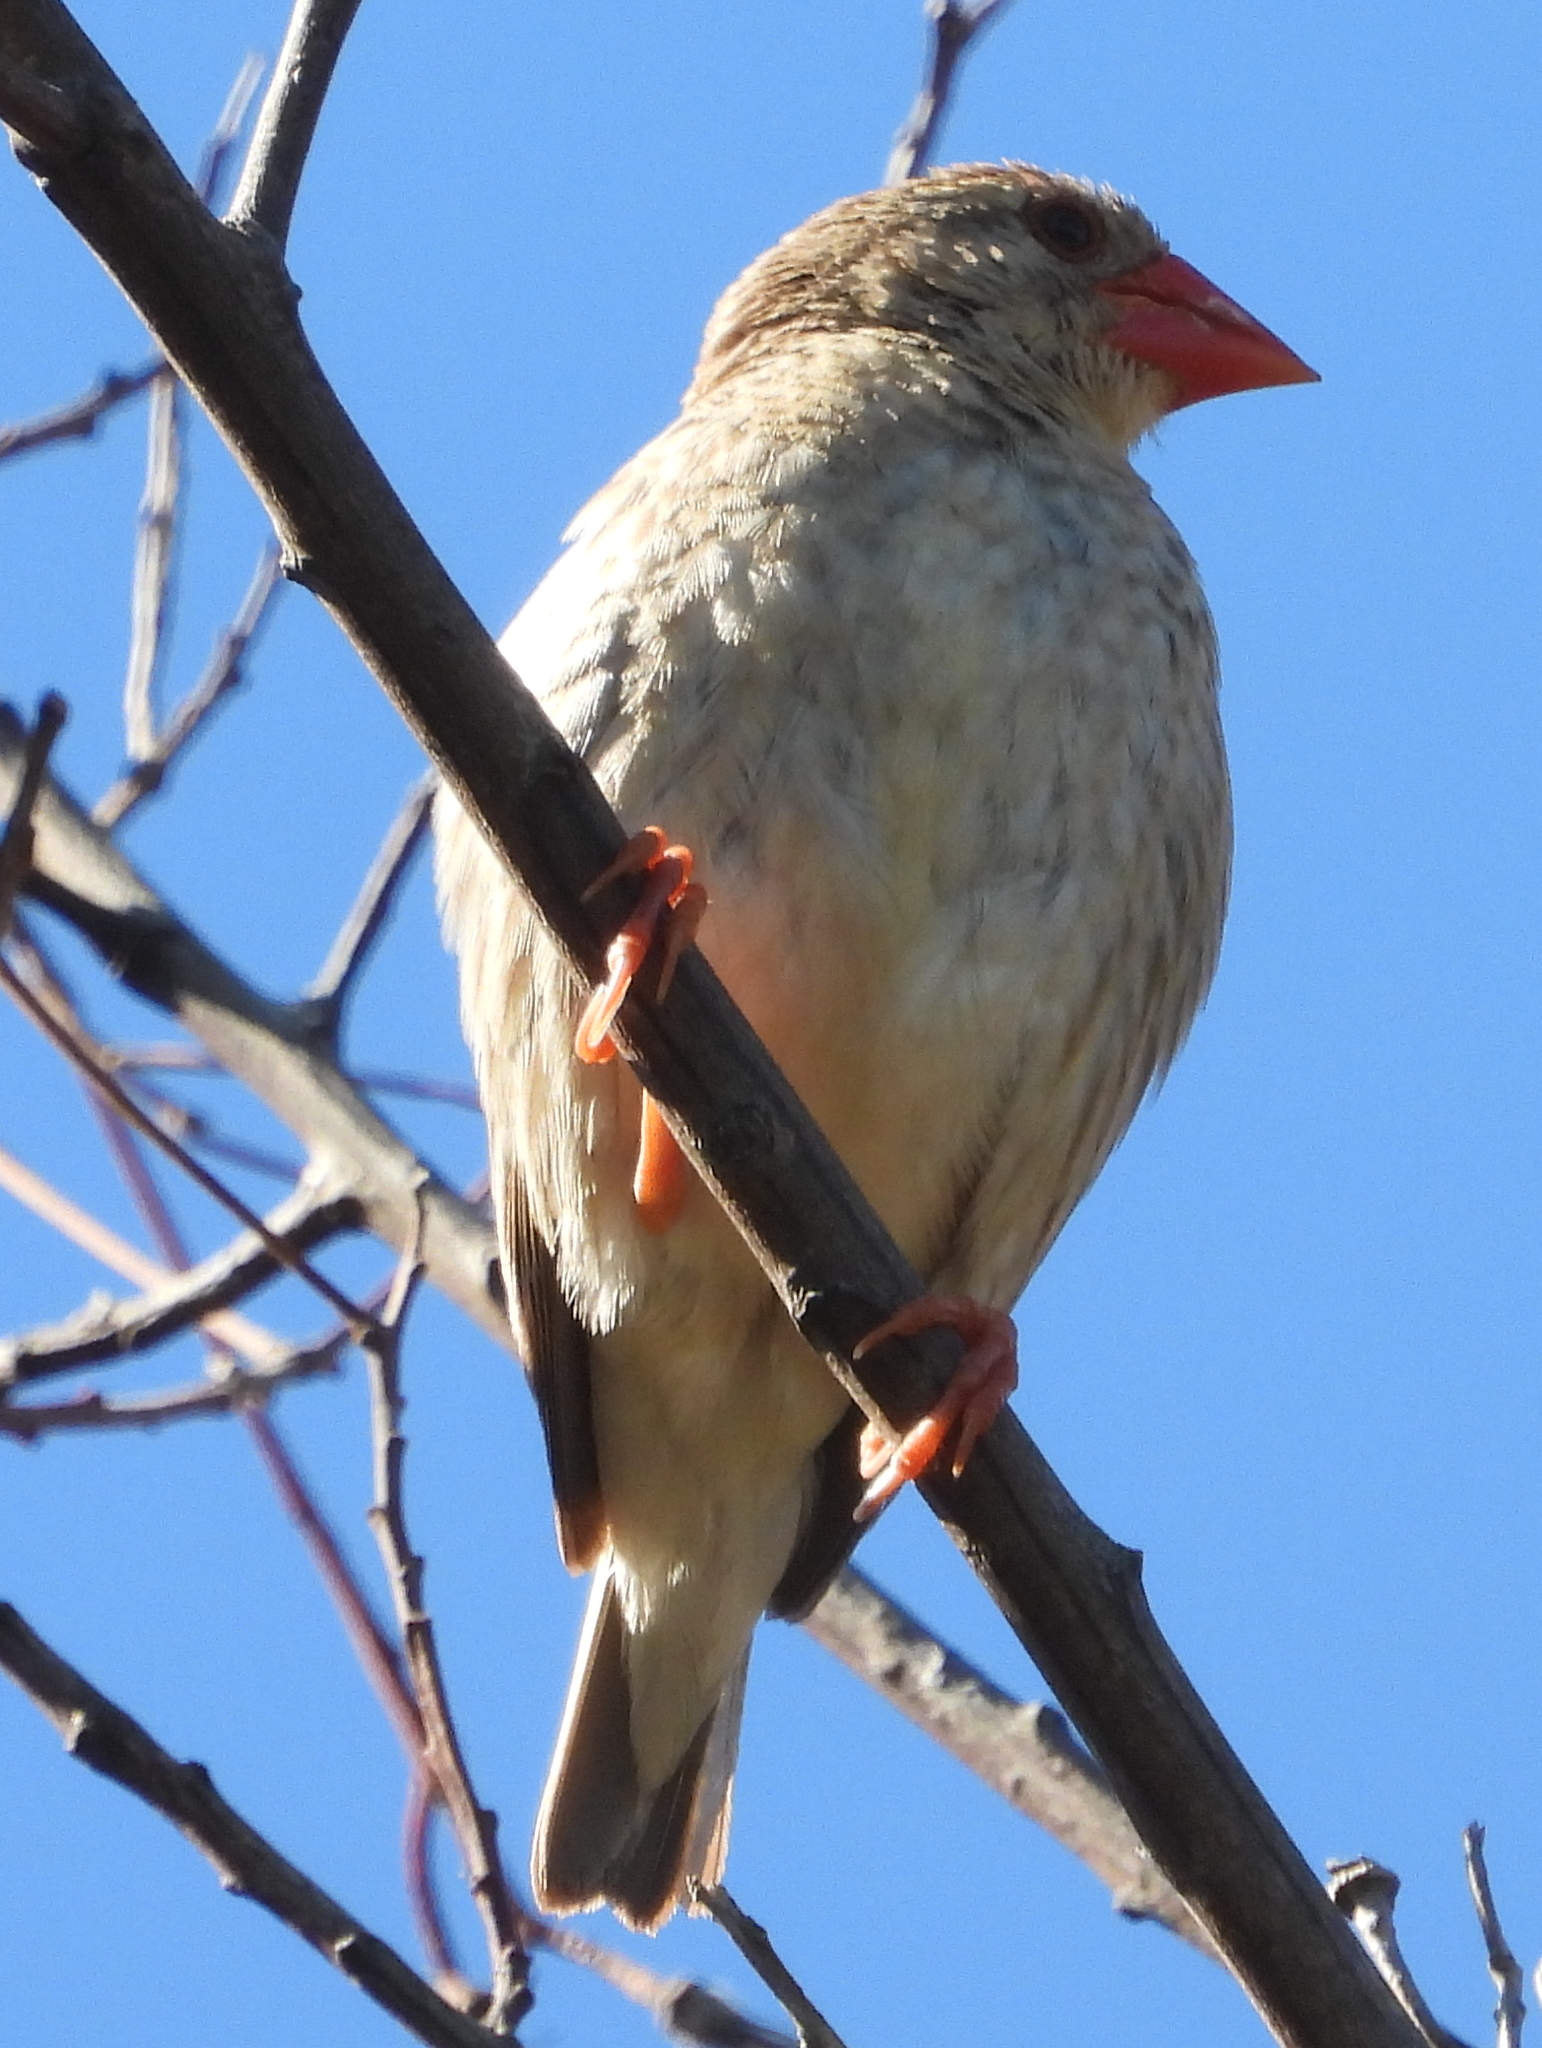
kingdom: Animalia
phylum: Chordata
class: Aves
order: Passeriformes
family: Ploceidae
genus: Quelea
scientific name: Quelea quelea
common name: Red-billed quelea
